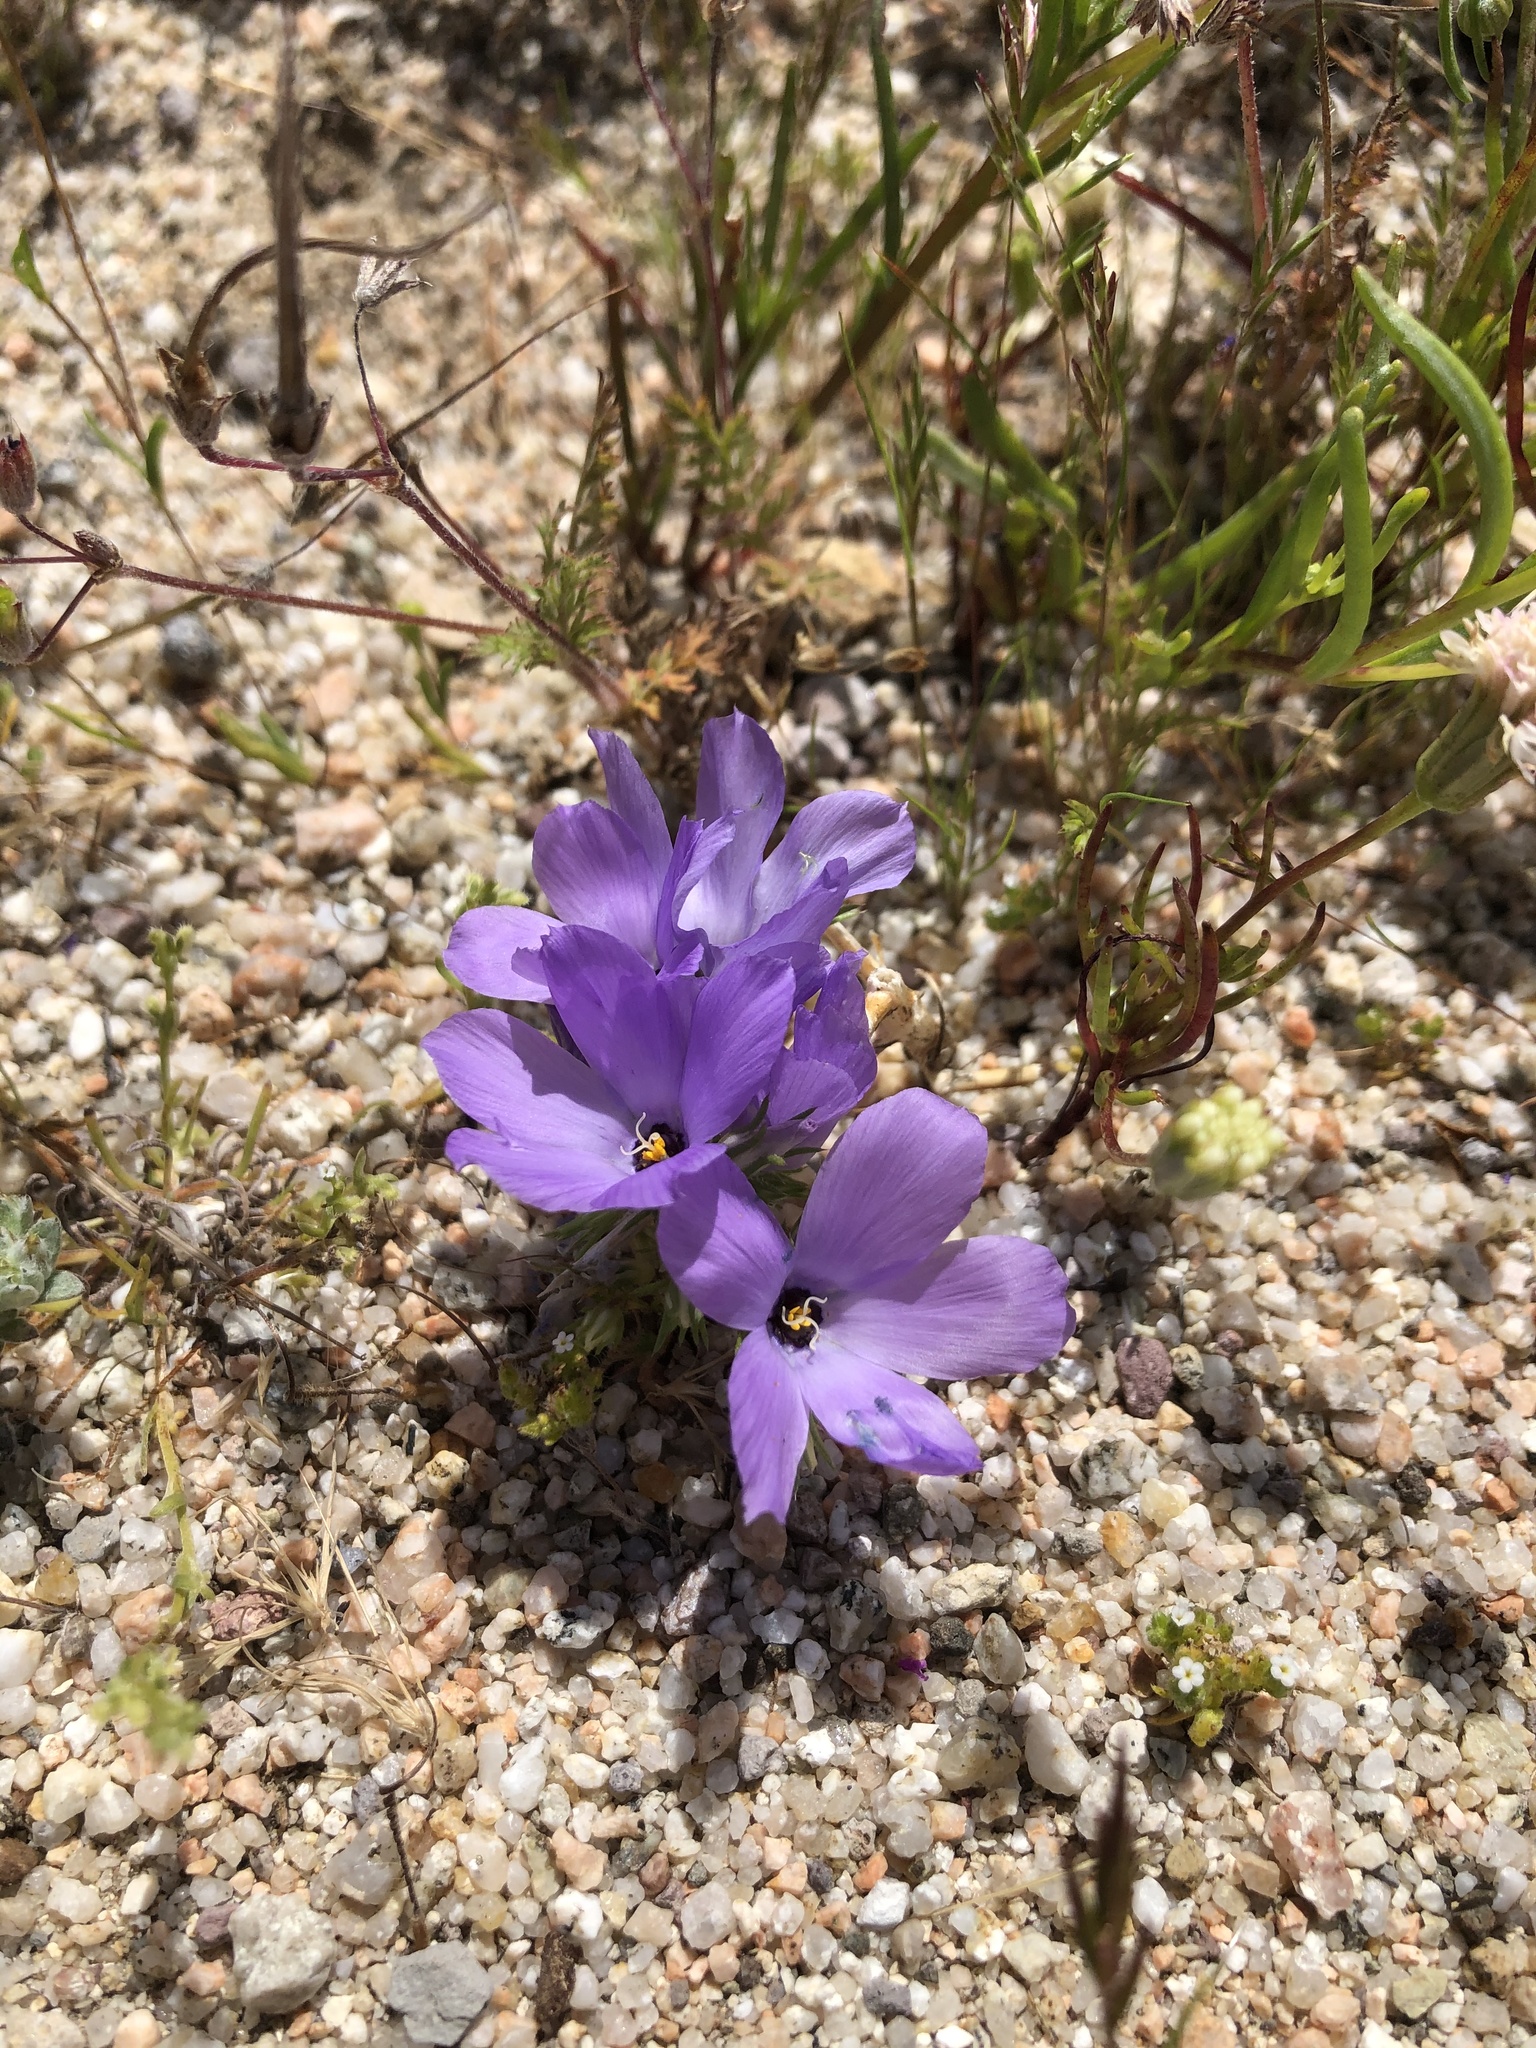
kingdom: Plantae
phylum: Tracheophyta
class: Magnoliopsida
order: Ericales
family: Polemoniaceae
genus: Linanthus
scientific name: Linanthus parryae
